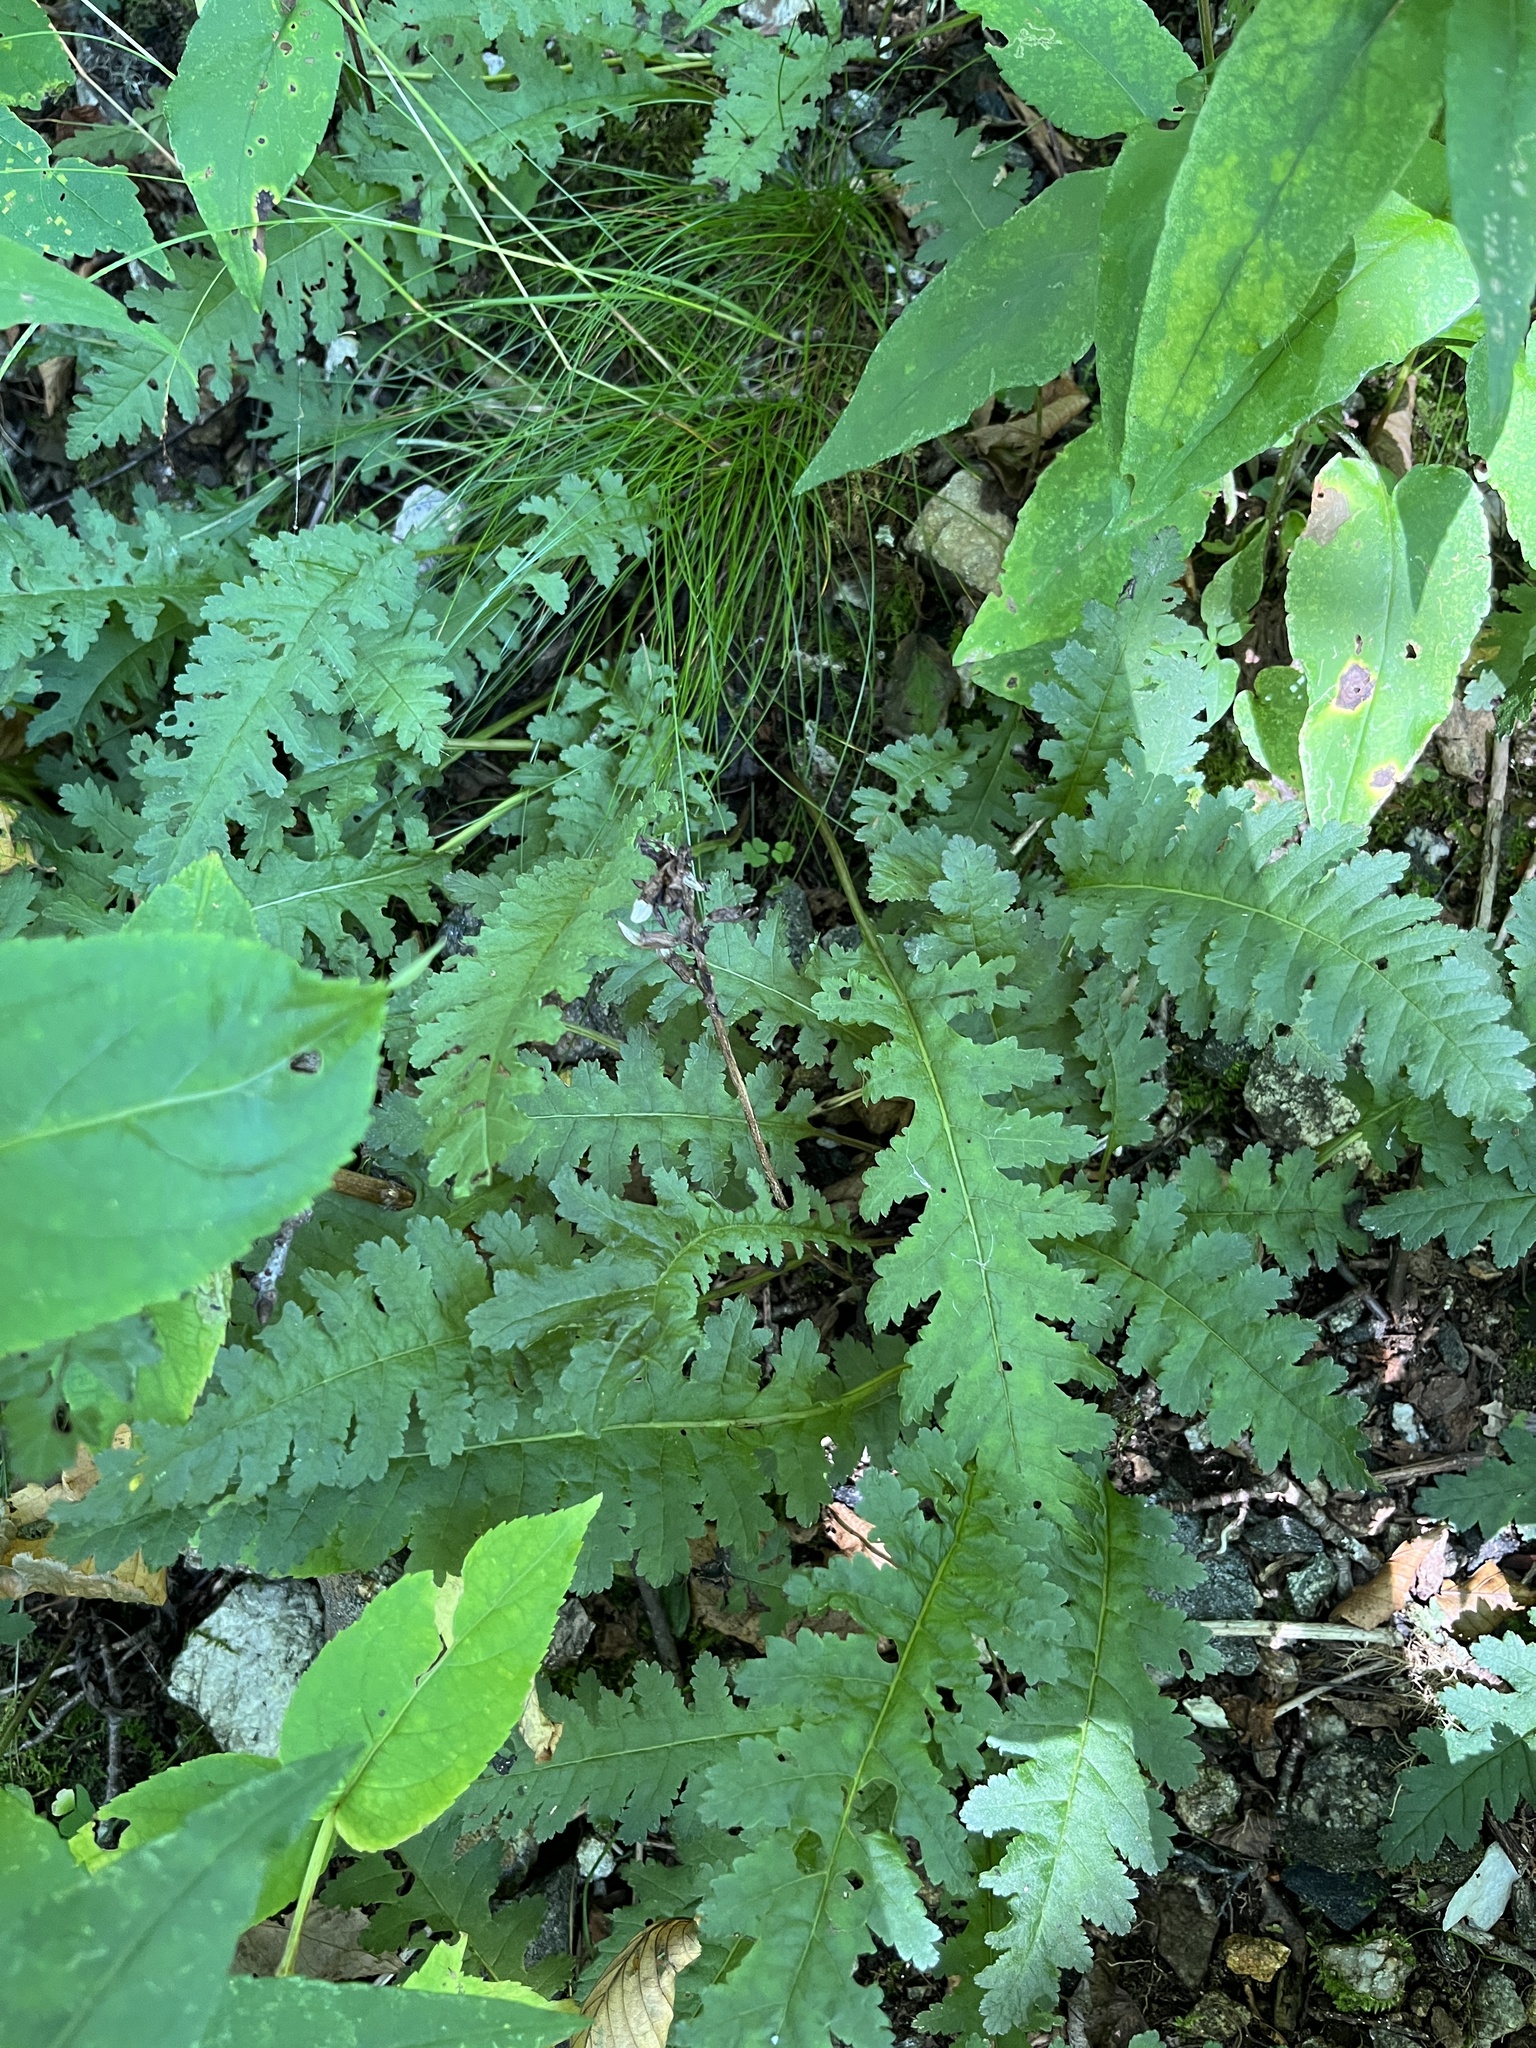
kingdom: Plantae
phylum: Tracheophyta
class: Magnoliopsida
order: Lamiales
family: Orobanchaceae
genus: Pedicularis
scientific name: Pedicularis canadensis
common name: Early lousewort
